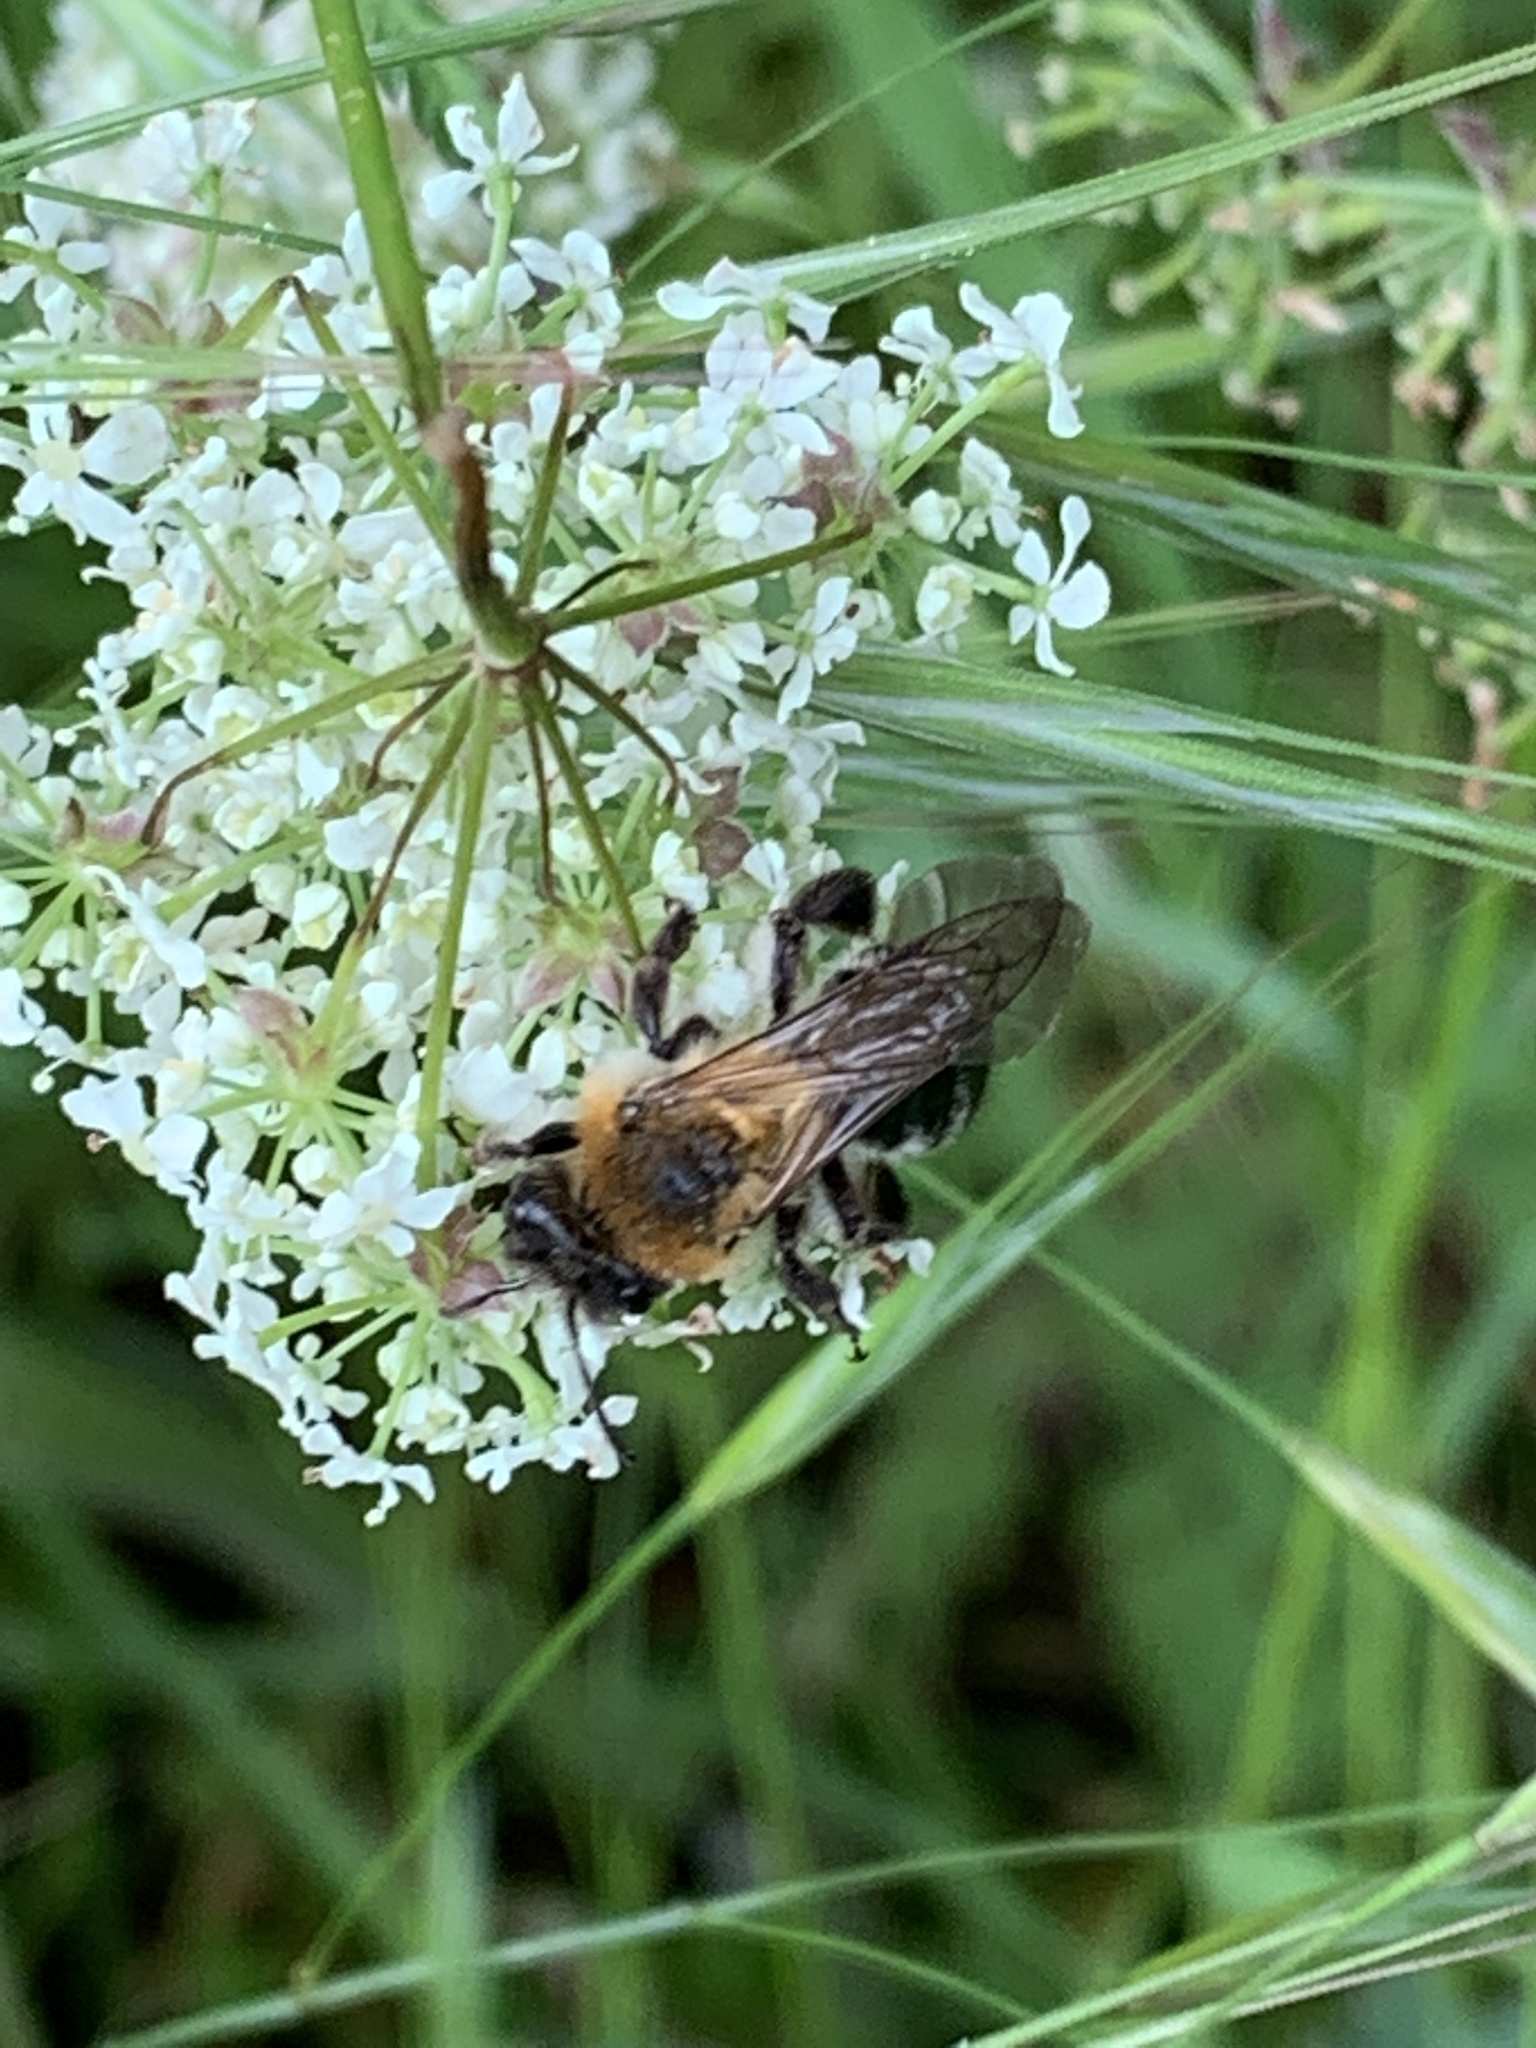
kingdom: Animalia
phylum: Arthropoda
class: Insecta
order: Hymenoptera
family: Andrenidae
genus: Andrena
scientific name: Andrena nitida
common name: Grey-patched mining bee
